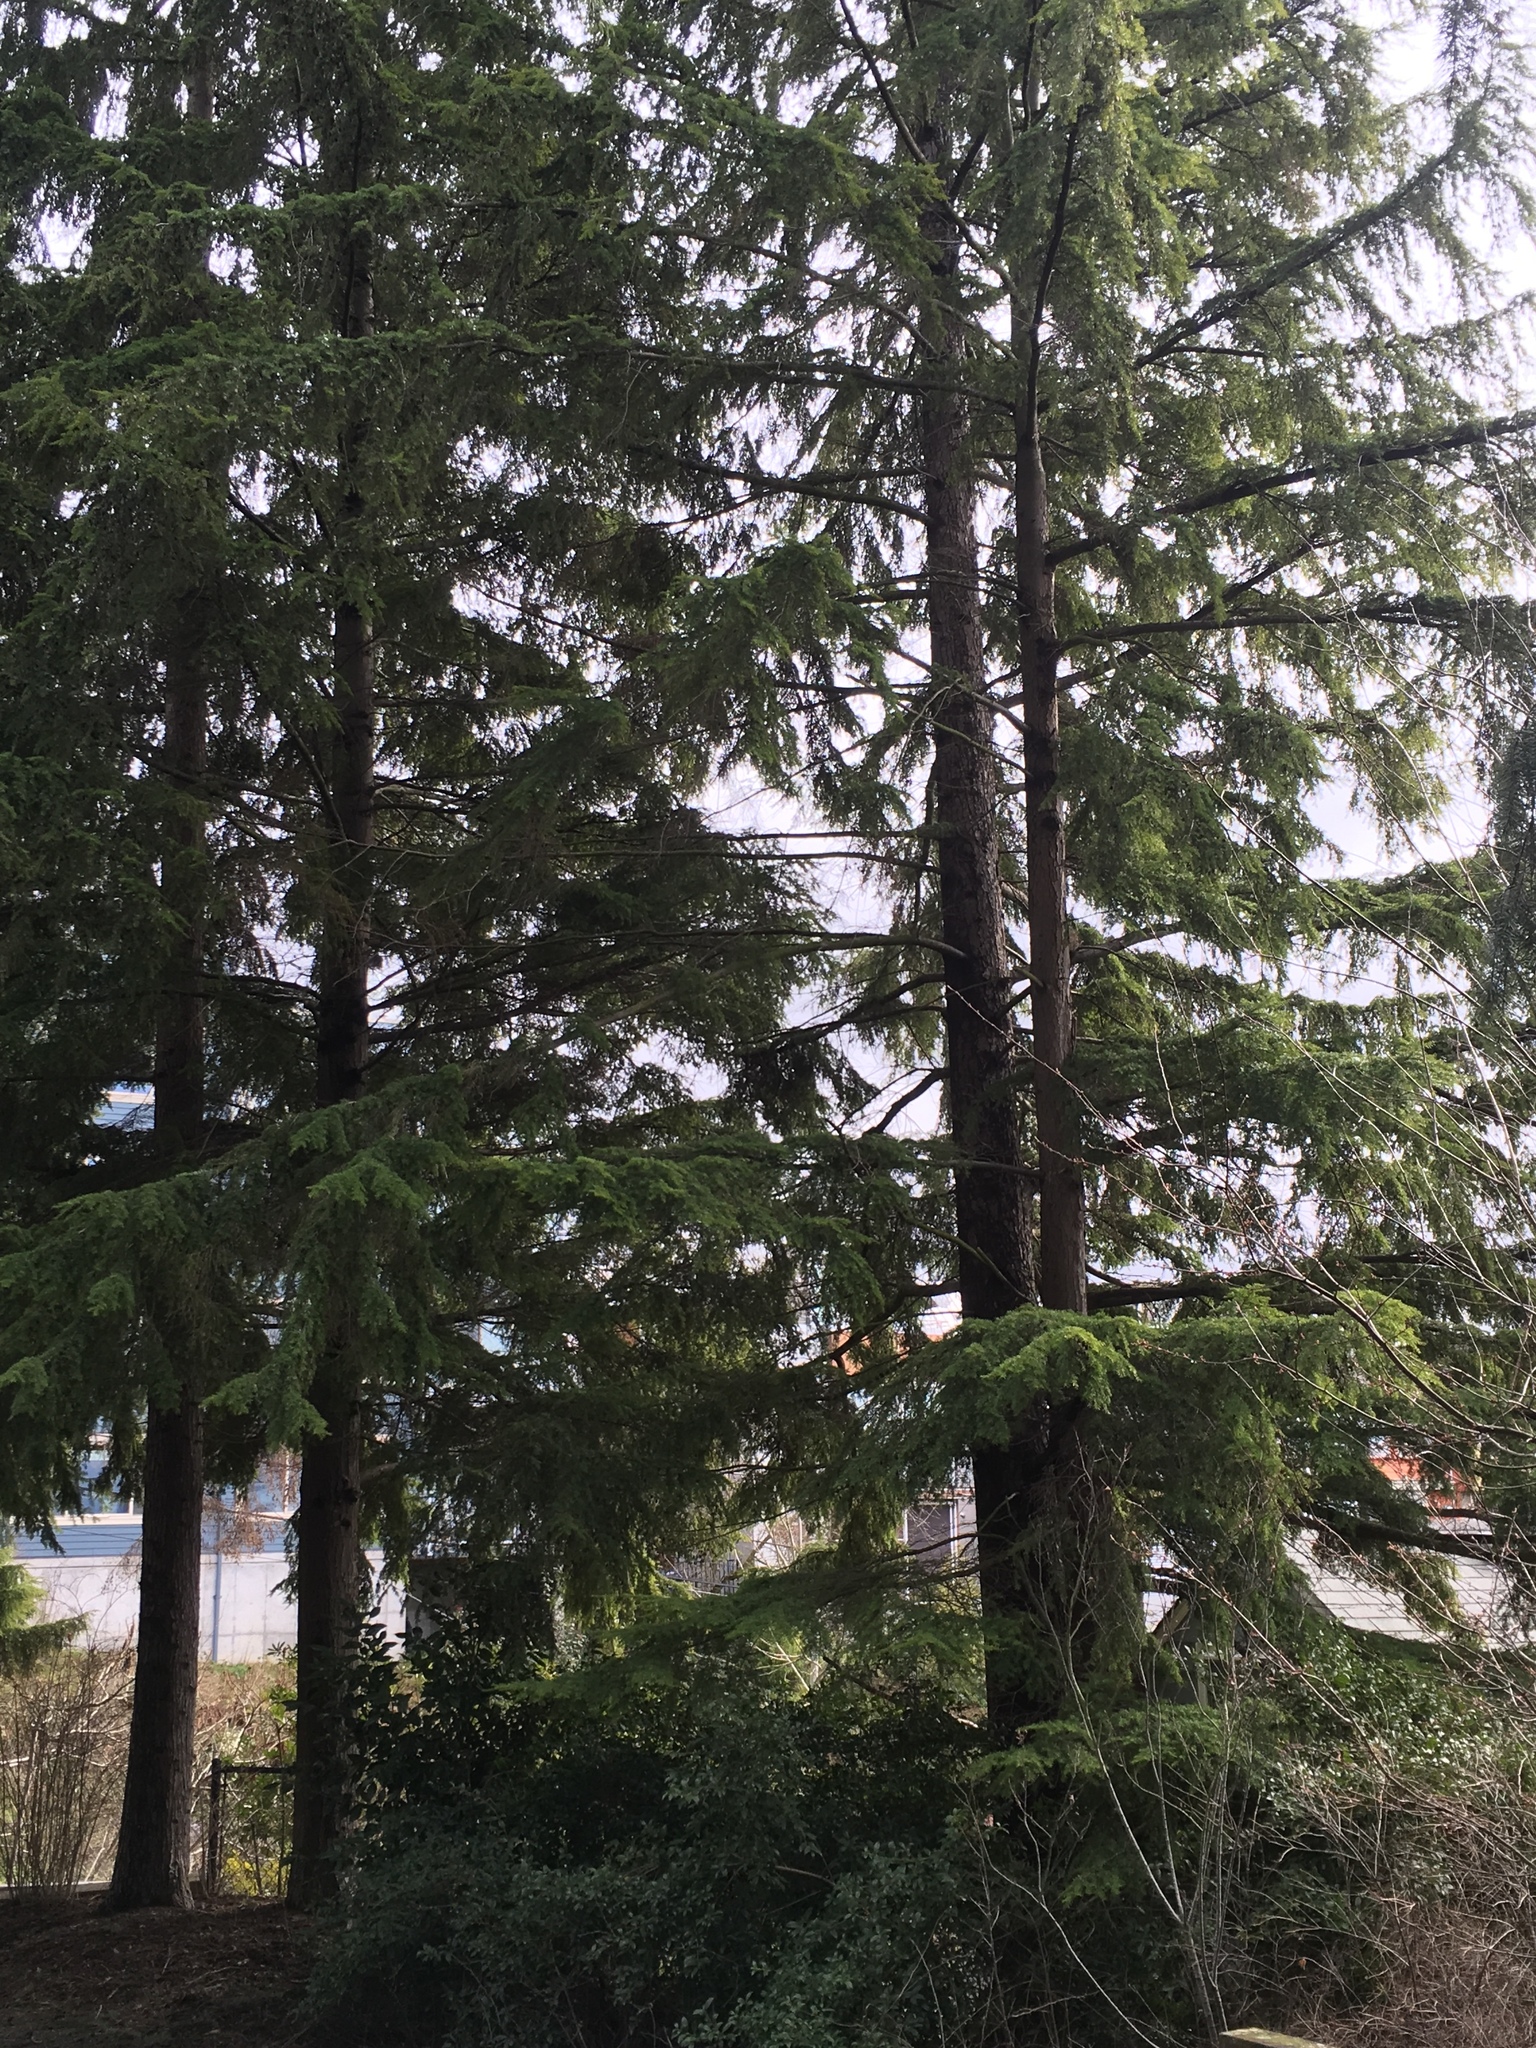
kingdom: Plantae
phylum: Tracheophyta
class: Pinopsida
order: Pinales
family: Pinaceae
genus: Tsuga
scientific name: Tsuga heterophylla
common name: Western hemlock
